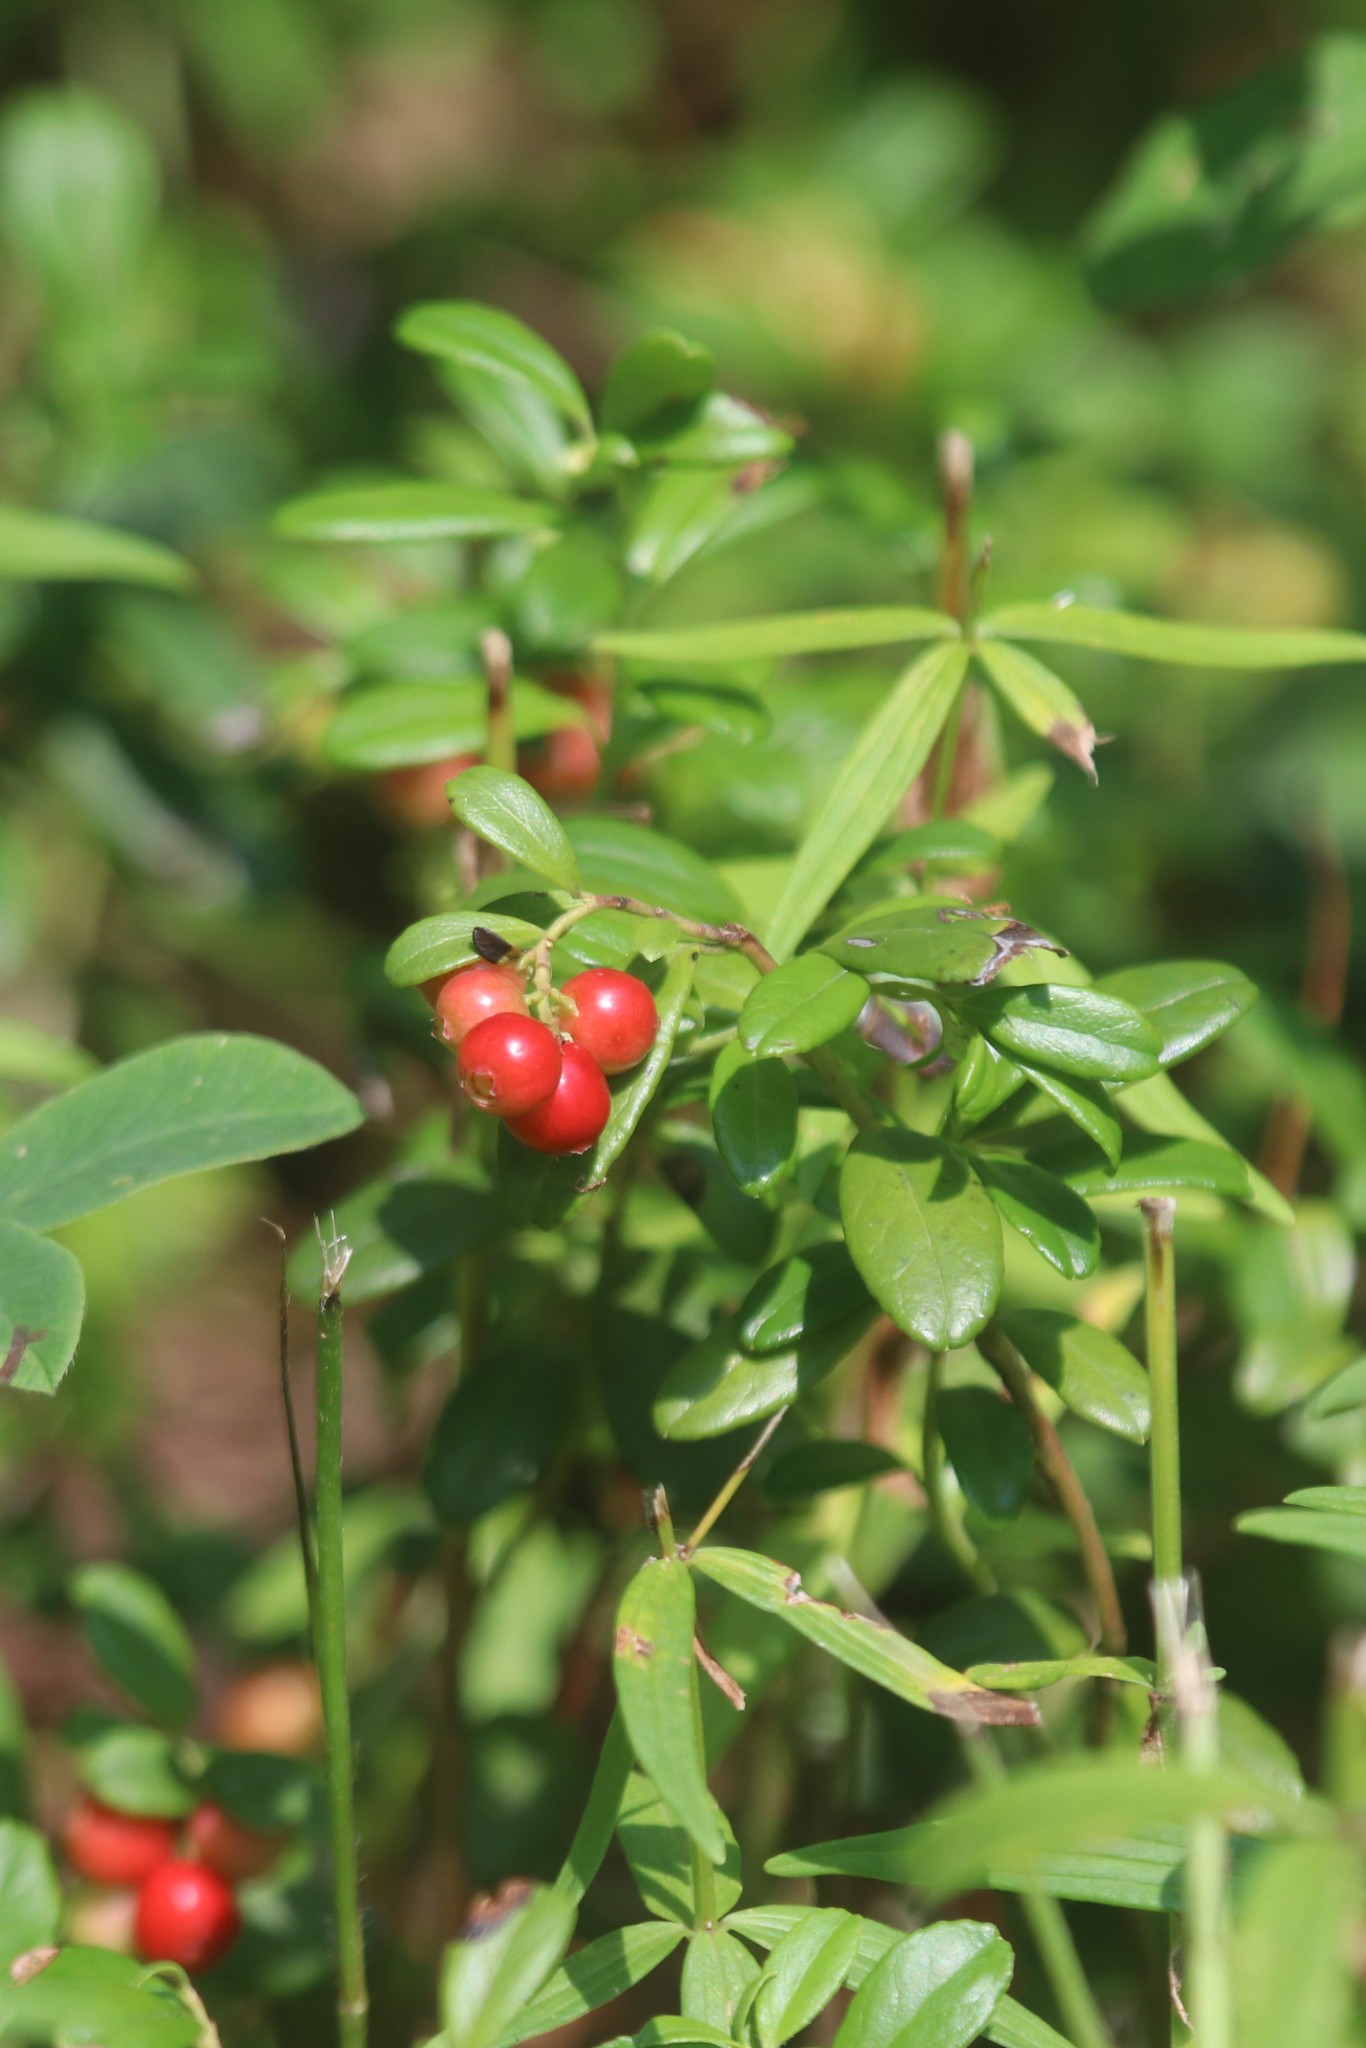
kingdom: Plantae
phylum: Tracheophyta
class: Magnoliopsida
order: Ericales
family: Ericaceae
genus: Vaccinium
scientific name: Vaccinium vitis-idaea
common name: Cowberry
